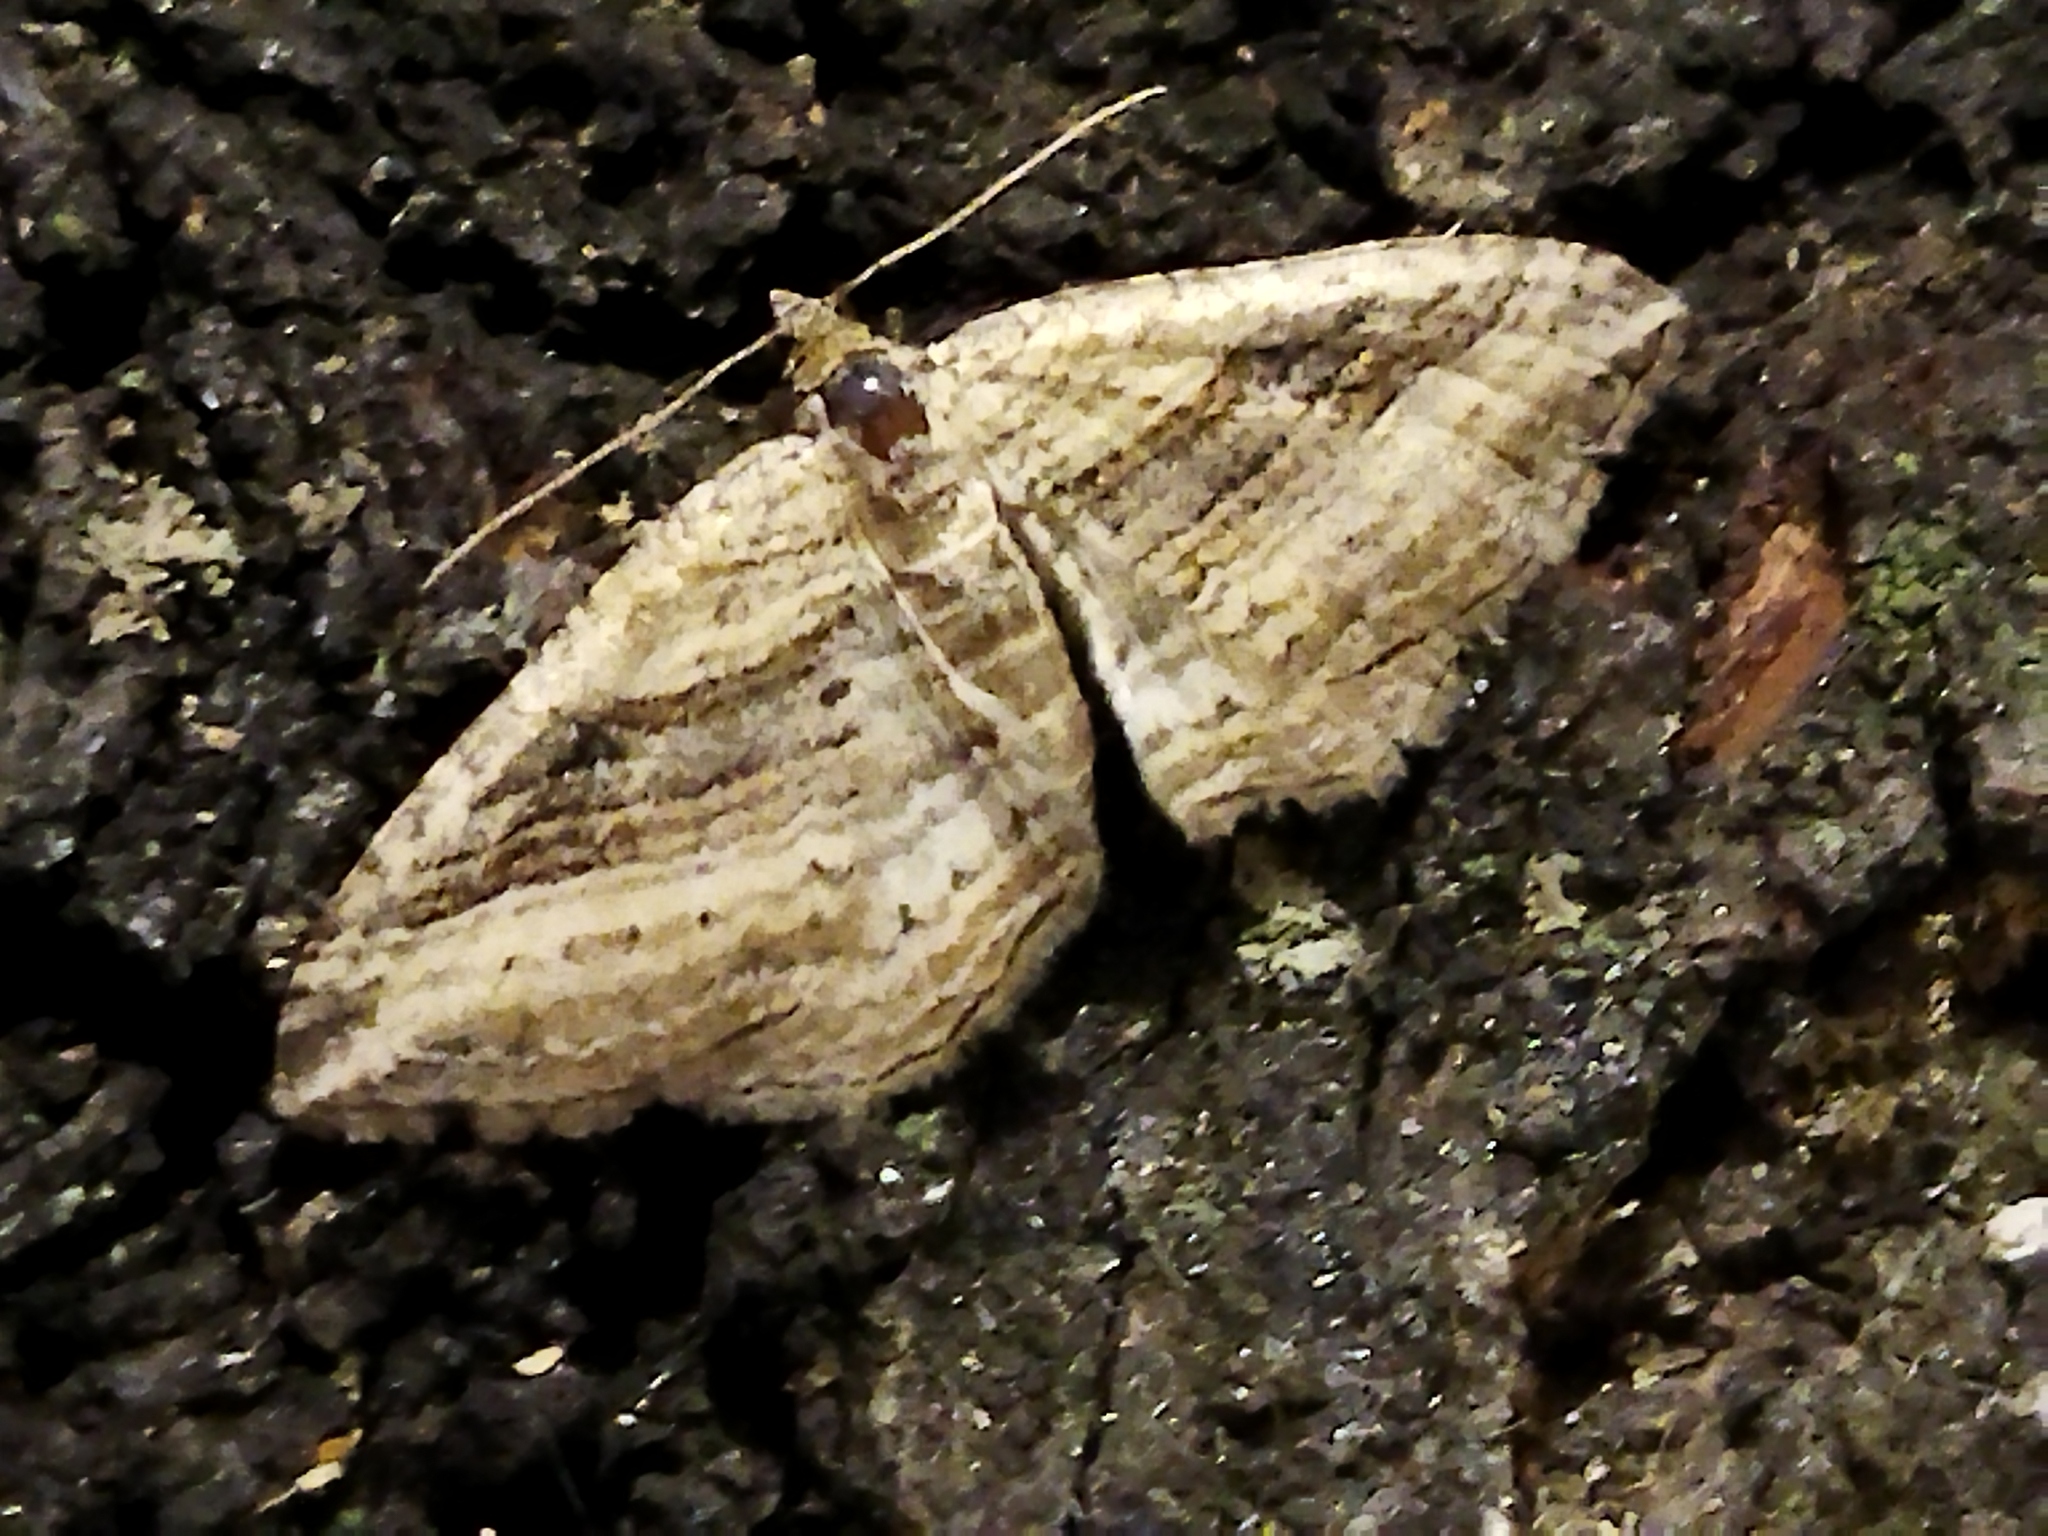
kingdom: Animalia
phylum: Arthropoda
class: Insecta
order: Lepidoptera
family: Geometridae
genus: Costaconvexa
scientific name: Costaconvexa polygrammata
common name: Many-lined
